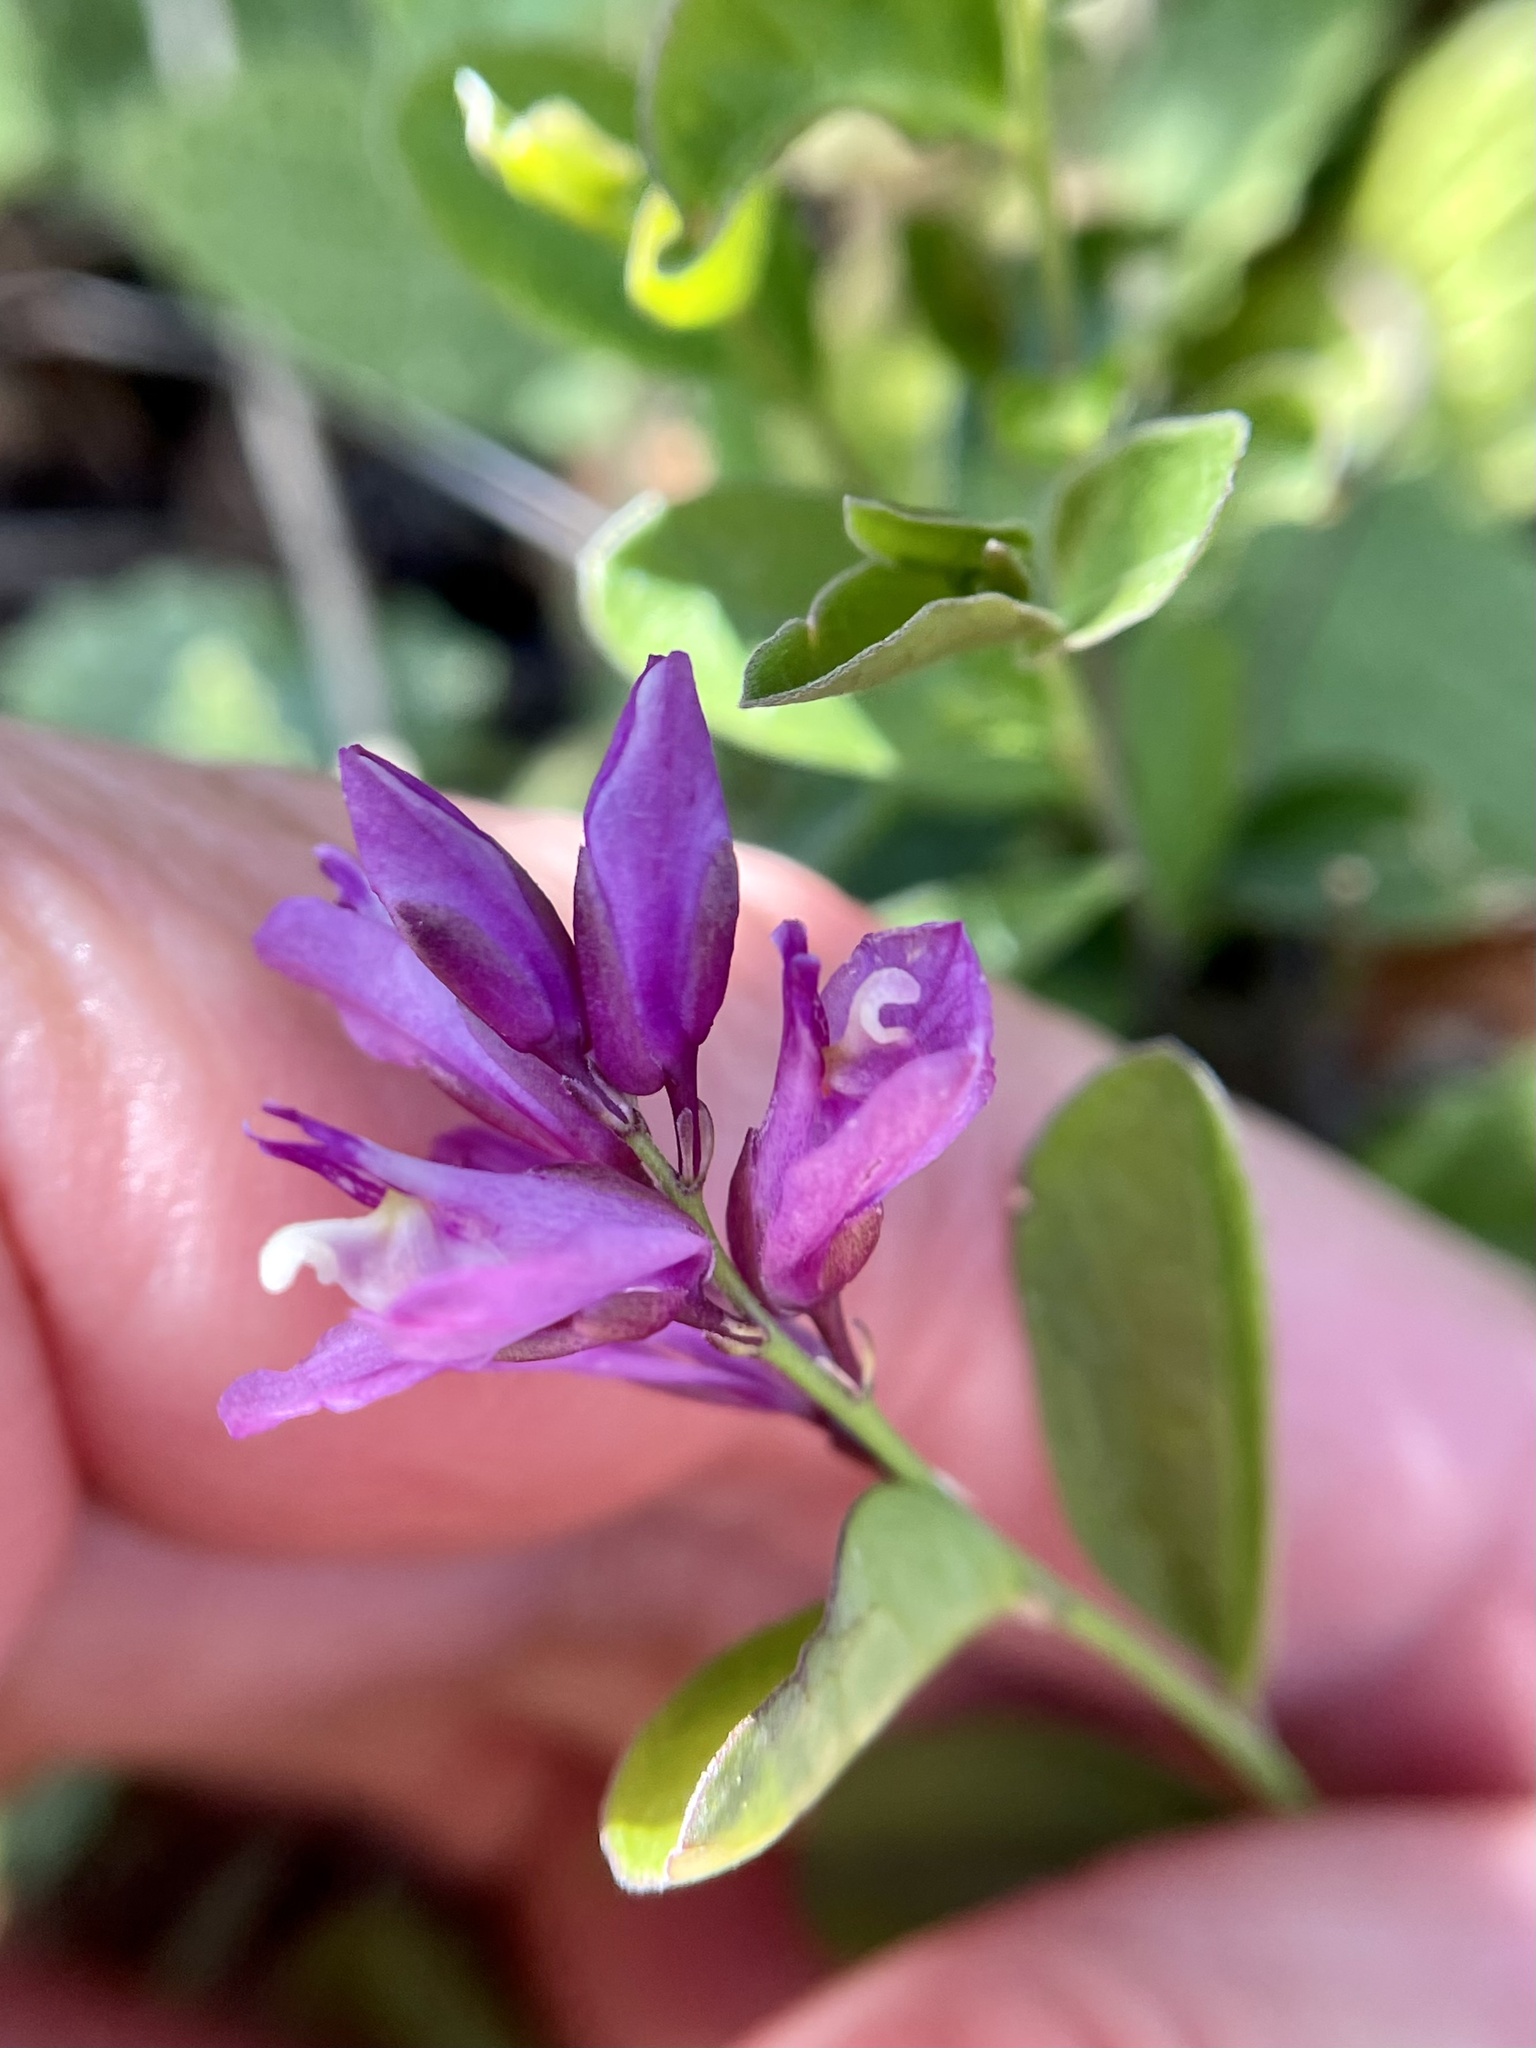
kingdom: Plantae
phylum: Tracheophyta
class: Magnoliopsida
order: Fabales
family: Polygalaceae
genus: Rhinotropis
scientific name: Rhinotropis californica
